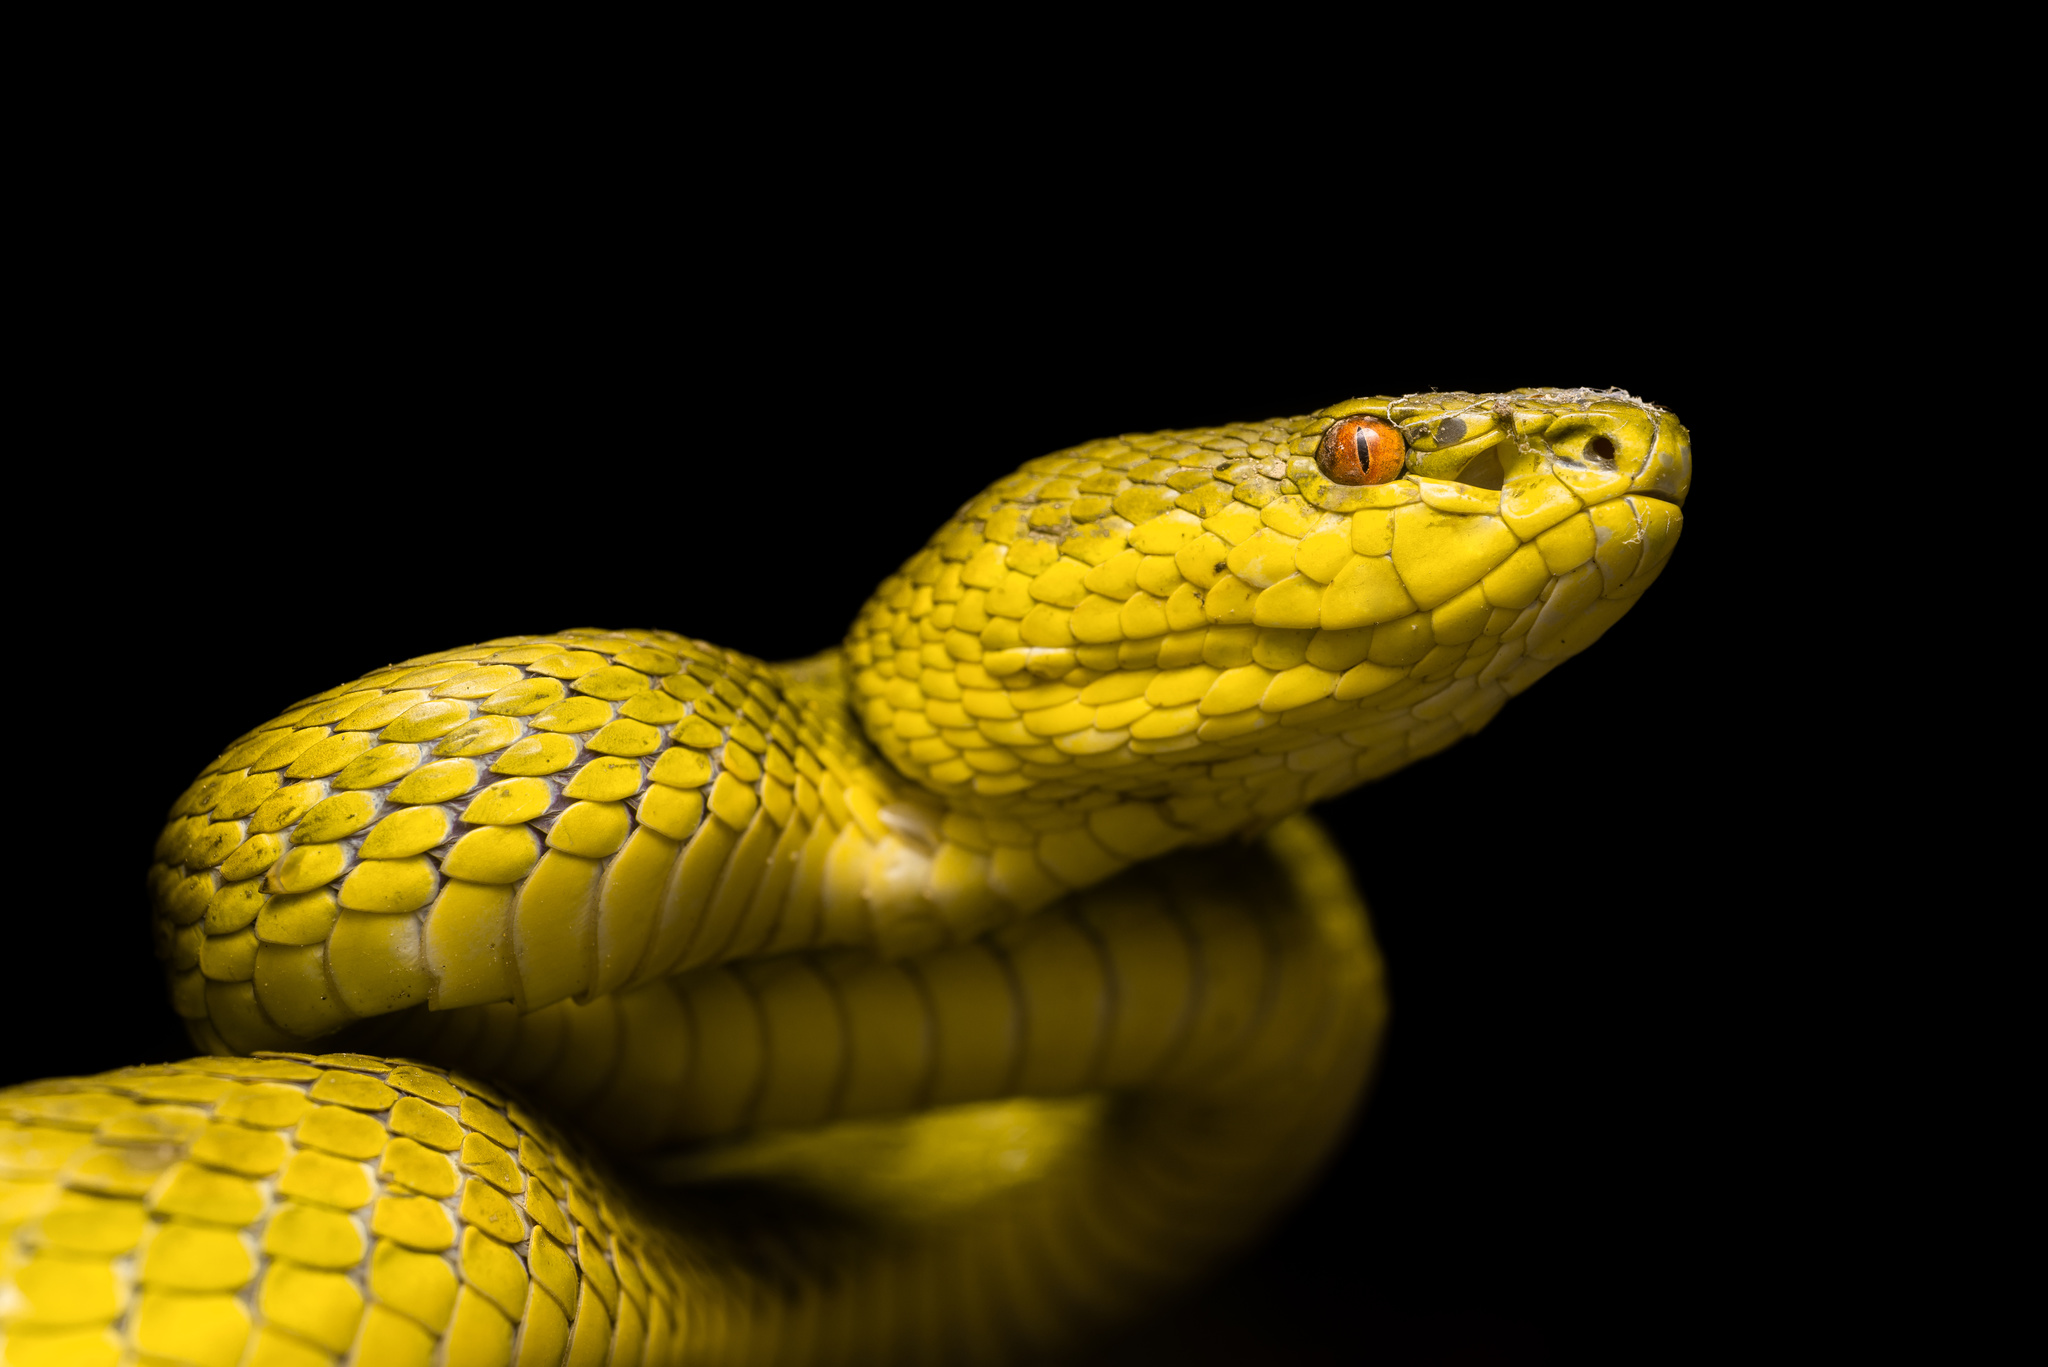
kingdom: Animalia
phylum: Chordata
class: Squamata
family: Viperidae
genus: Trimeresurus
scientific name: Trimeresurus albolabris
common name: White-lipped pitviper
